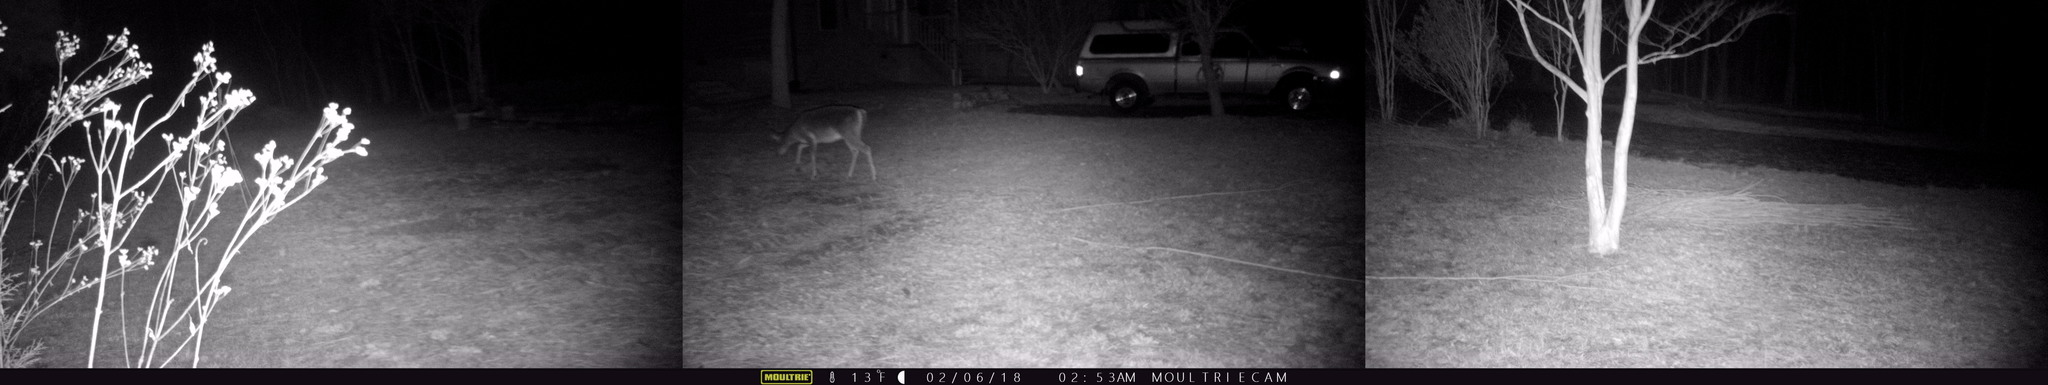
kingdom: Animalia
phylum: Chordata
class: Mammalia
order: Artiodactyla
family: Cervidae
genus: Odocoileus
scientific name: Odocoileus virginianus
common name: White-tailed deer
